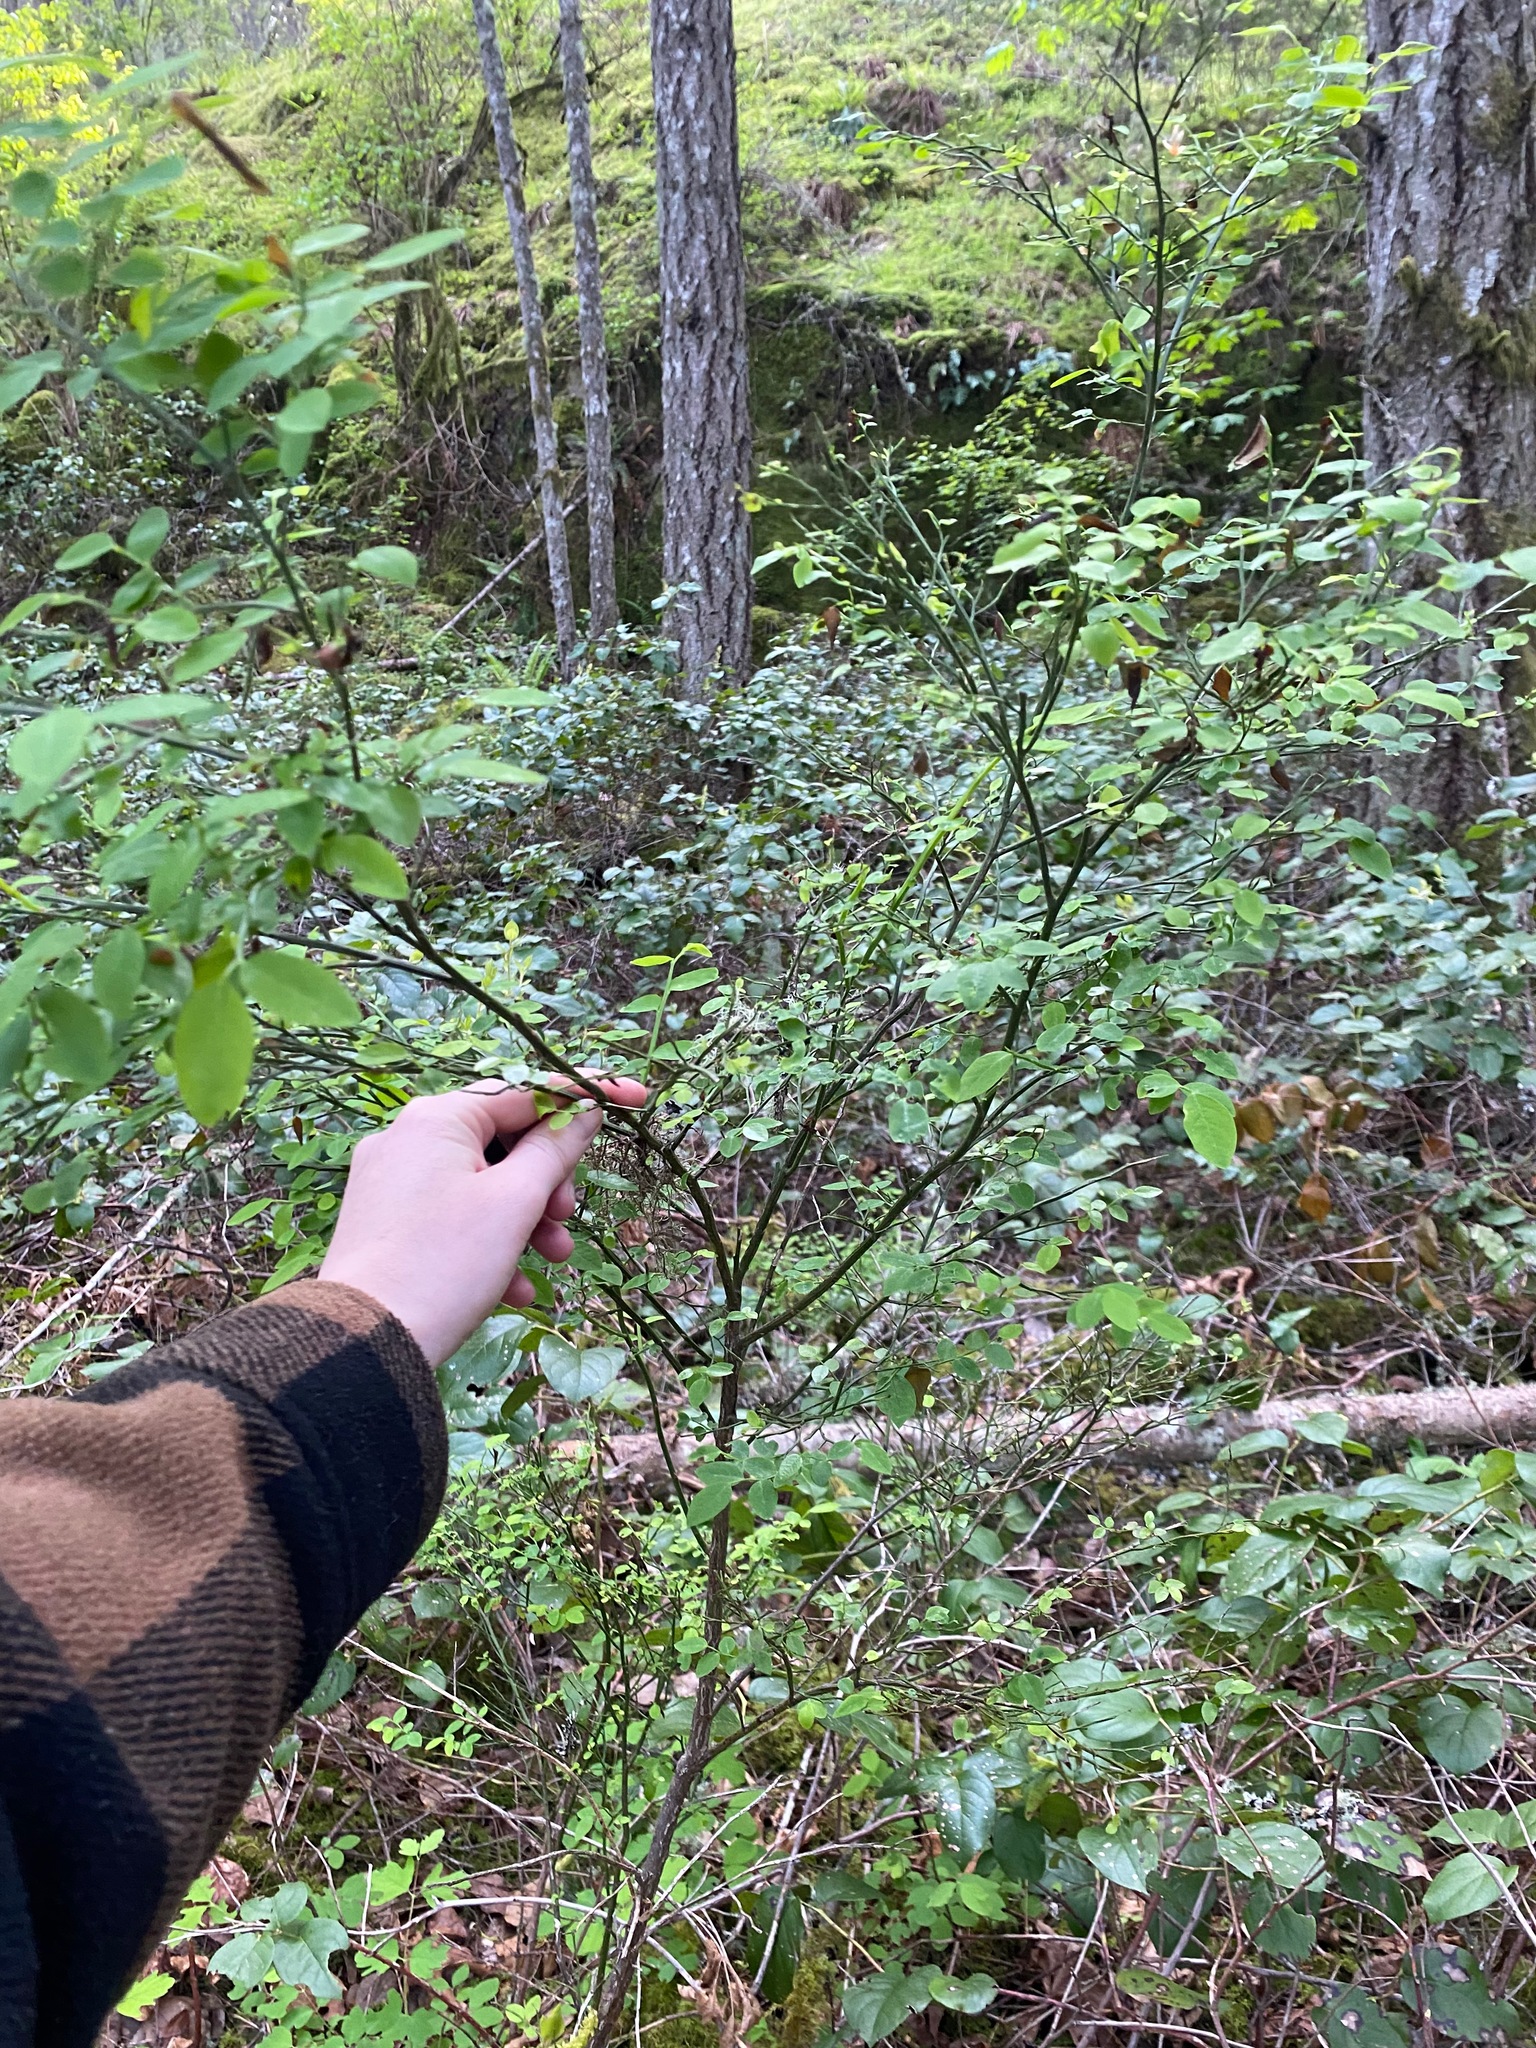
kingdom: Plantae
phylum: Tracheophyta
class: Magnoliopsida
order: Ericales
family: Ericaceae
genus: Vaccinium
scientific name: Vaccinium parvifolium
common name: Red-huckleberry
